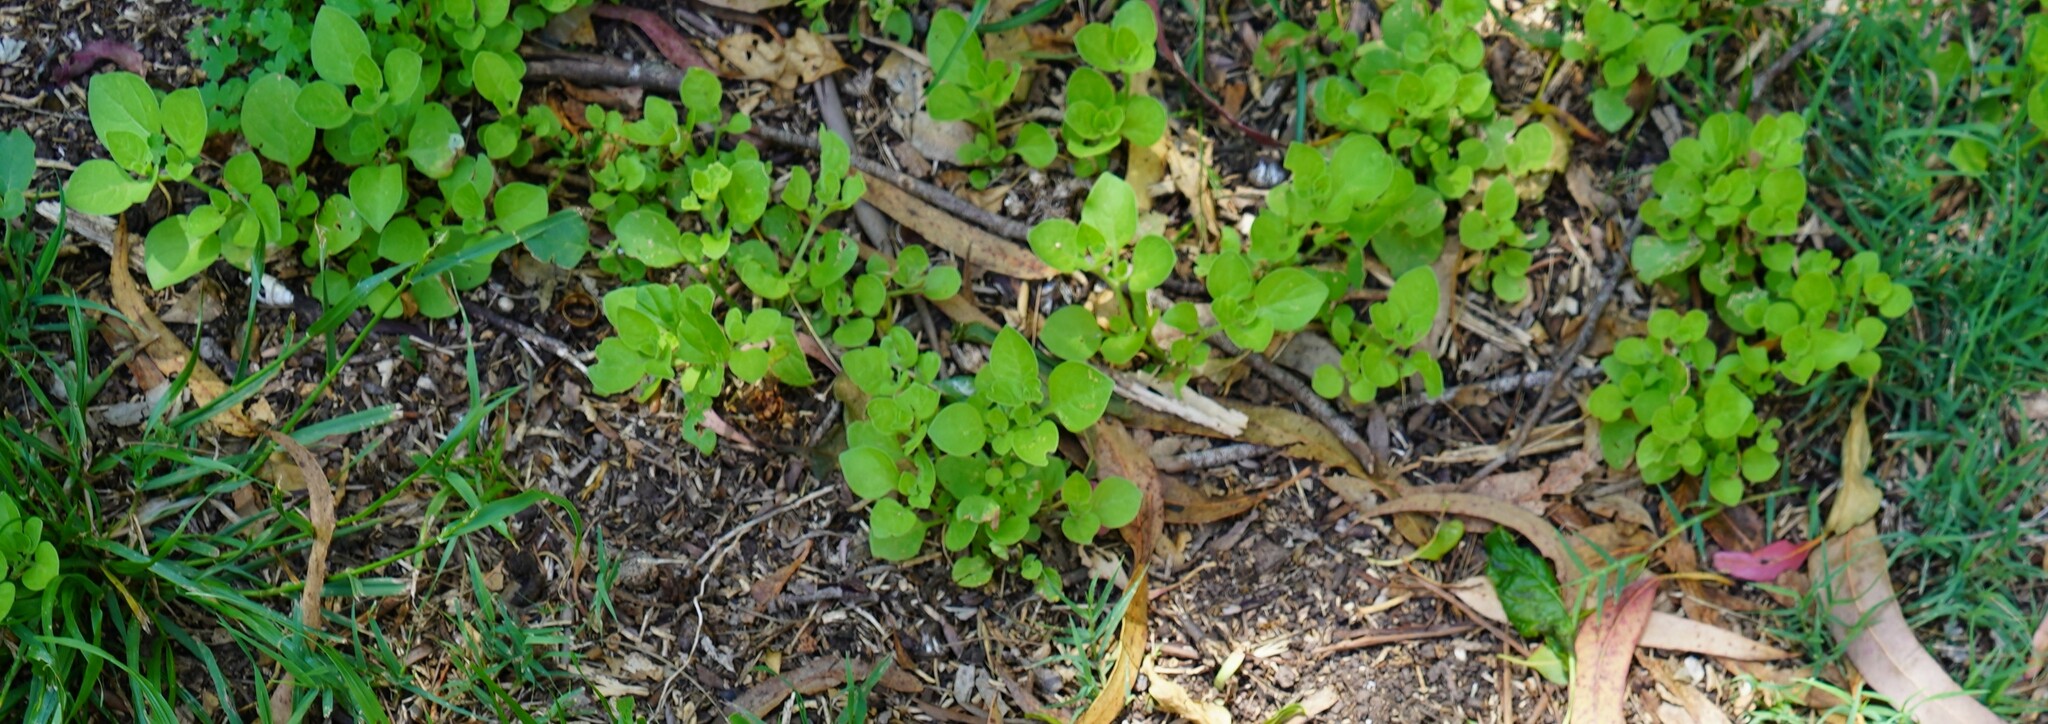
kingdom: Plantae
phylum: Tracheophyta
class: Magnoliopsida
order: Solanales
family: Solanaceae
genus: Salpichroa
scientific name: Salpichroa origanifolia
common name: Lily-of-the-valley-vine
